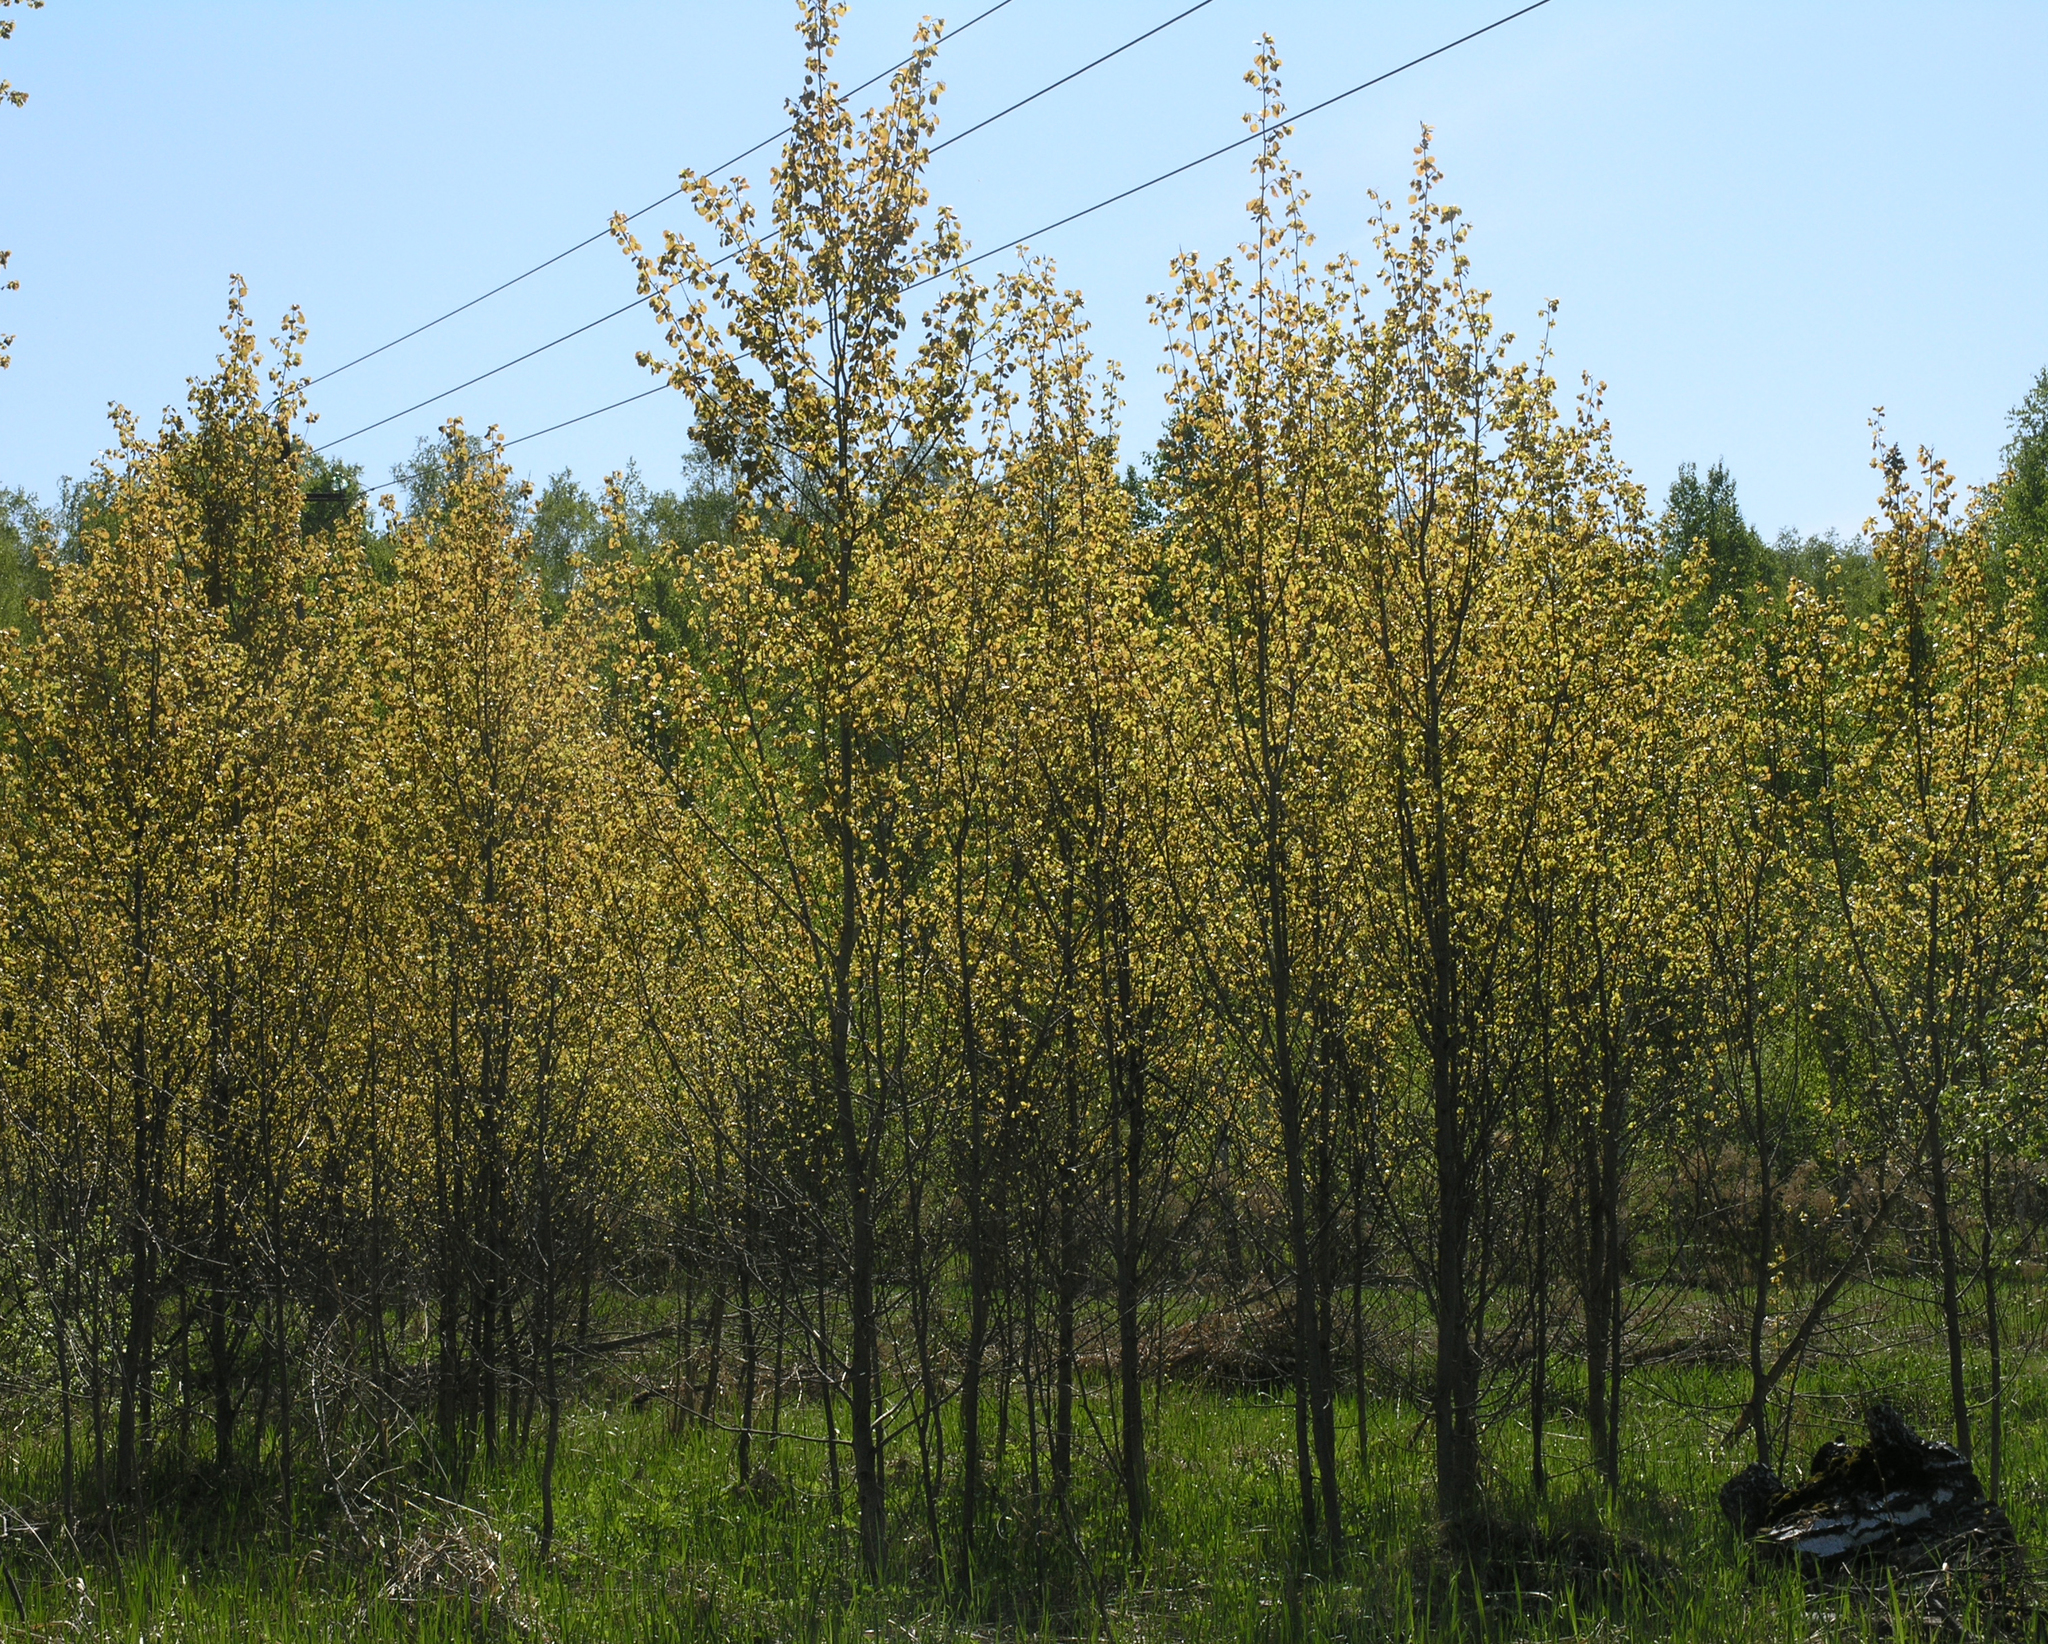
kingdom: Plantae
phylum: Tracheophyta
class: Magnoliopsida
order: Malpighiales
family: Salicaceae
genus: Populus
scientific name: Populus tremula
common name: European aspen
